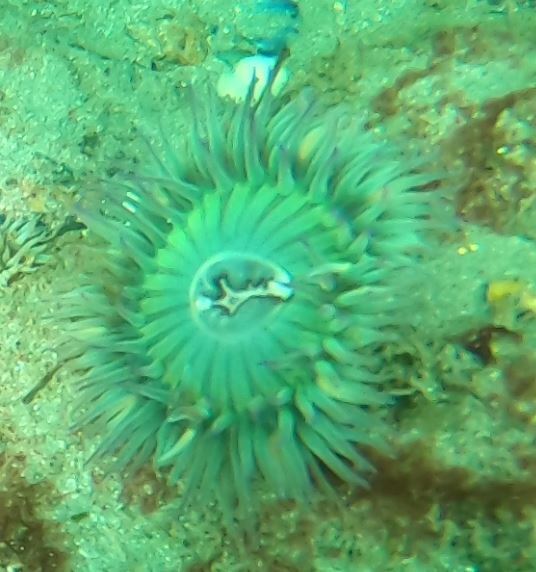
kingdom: Animalia
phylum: Cnidaria
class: Anthozoa
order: Actiniaria
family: Actiniidae
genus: Anthopleura
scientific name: Anthopleura sola
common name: Sun anemone
